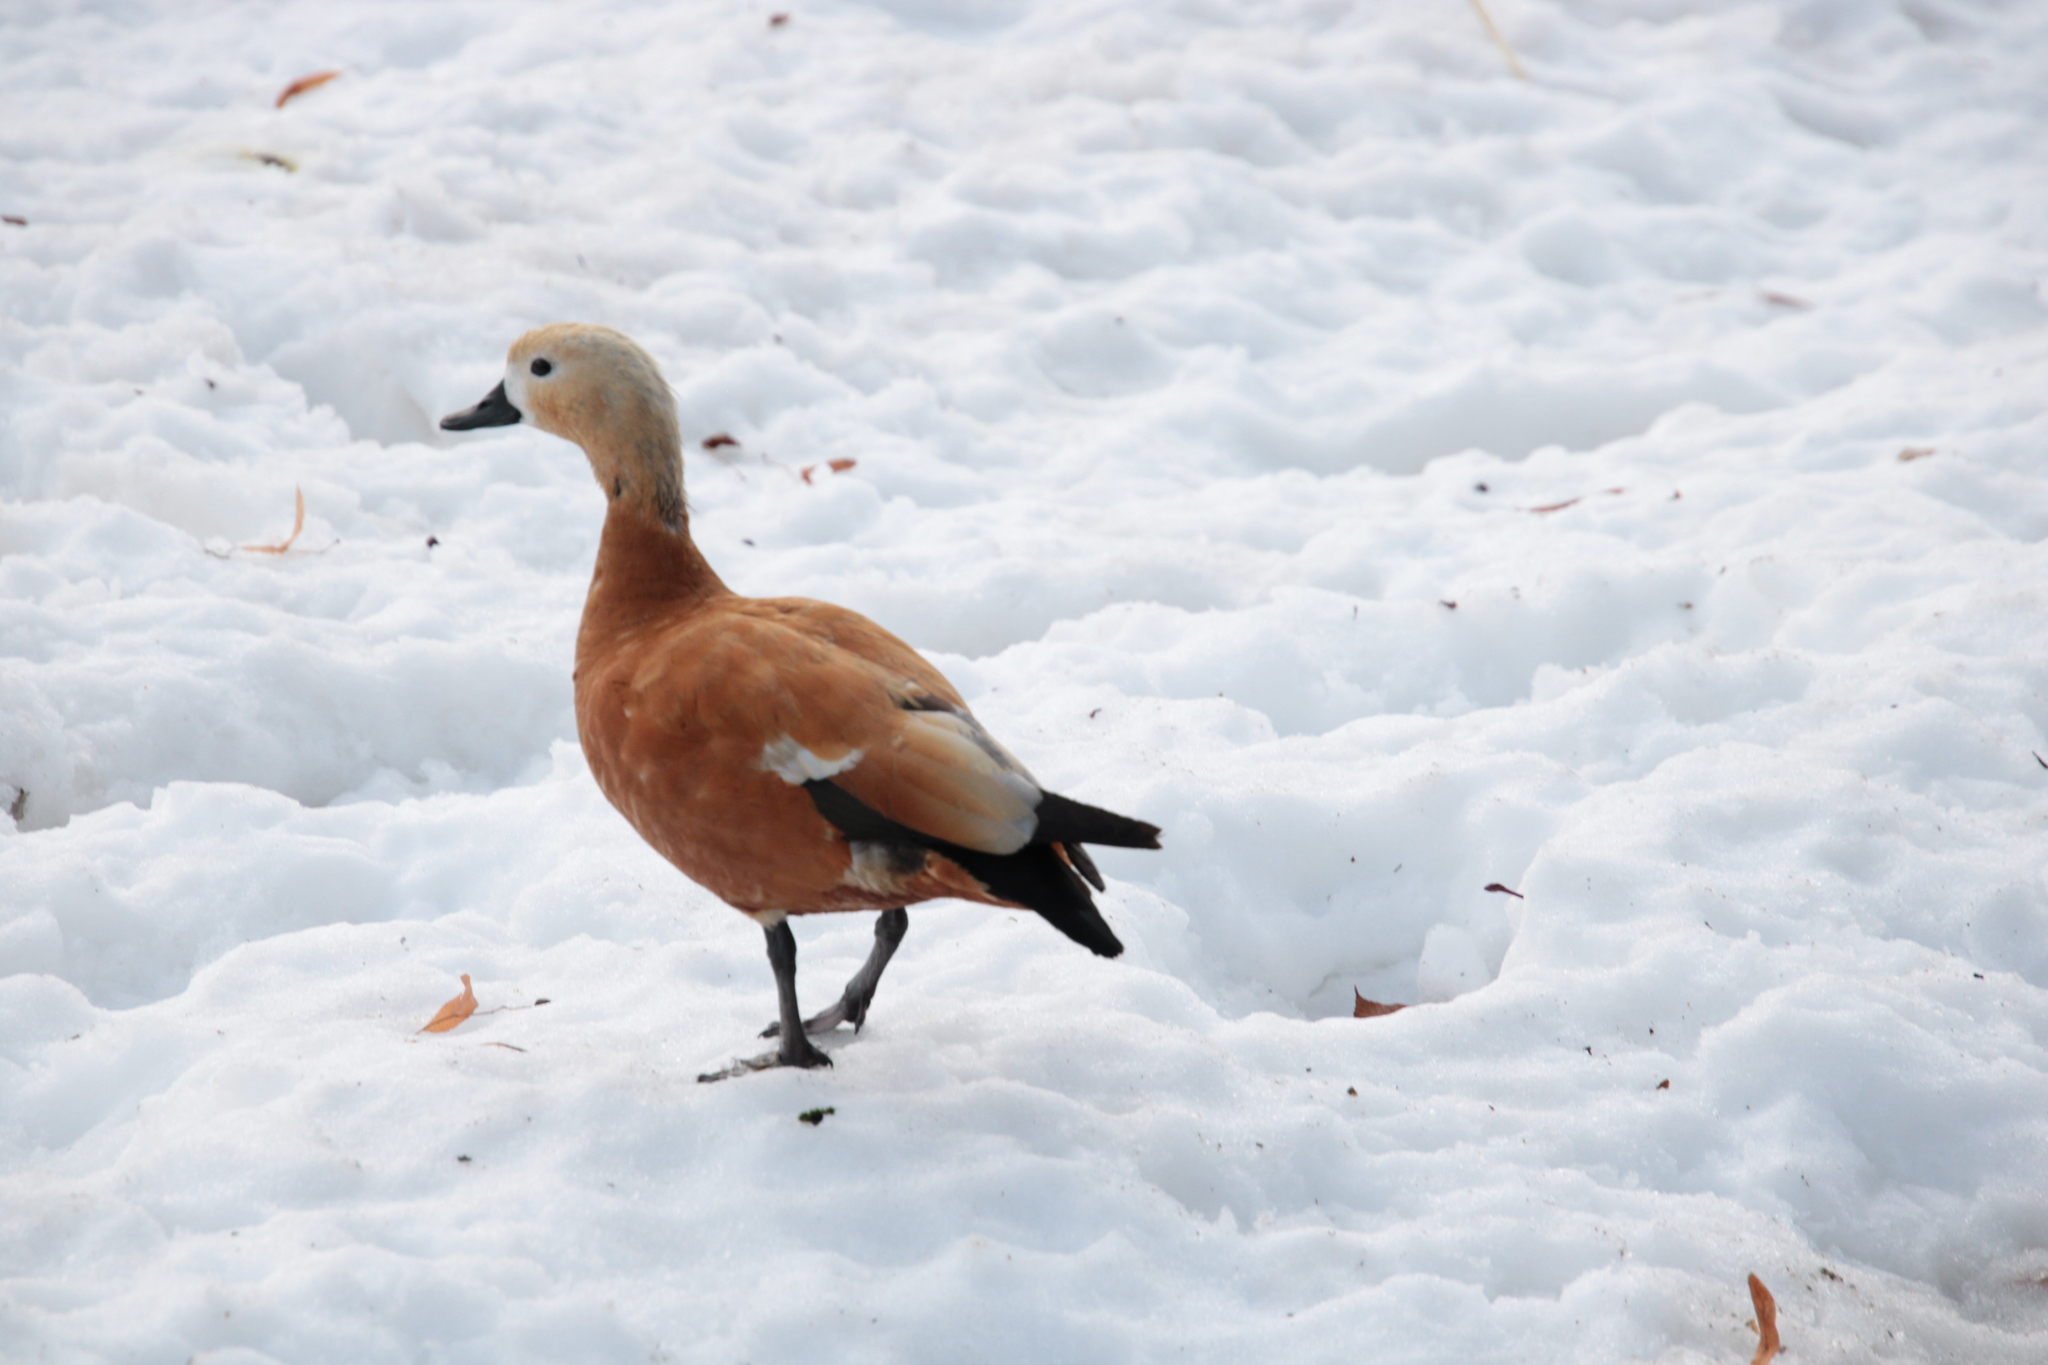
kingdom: Animalia
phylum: Chordata
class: Aves
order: Anseriformes
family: Anatidae
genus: Tadorna
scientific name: Tadorna ferruginea
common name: Ruddy shelduck
